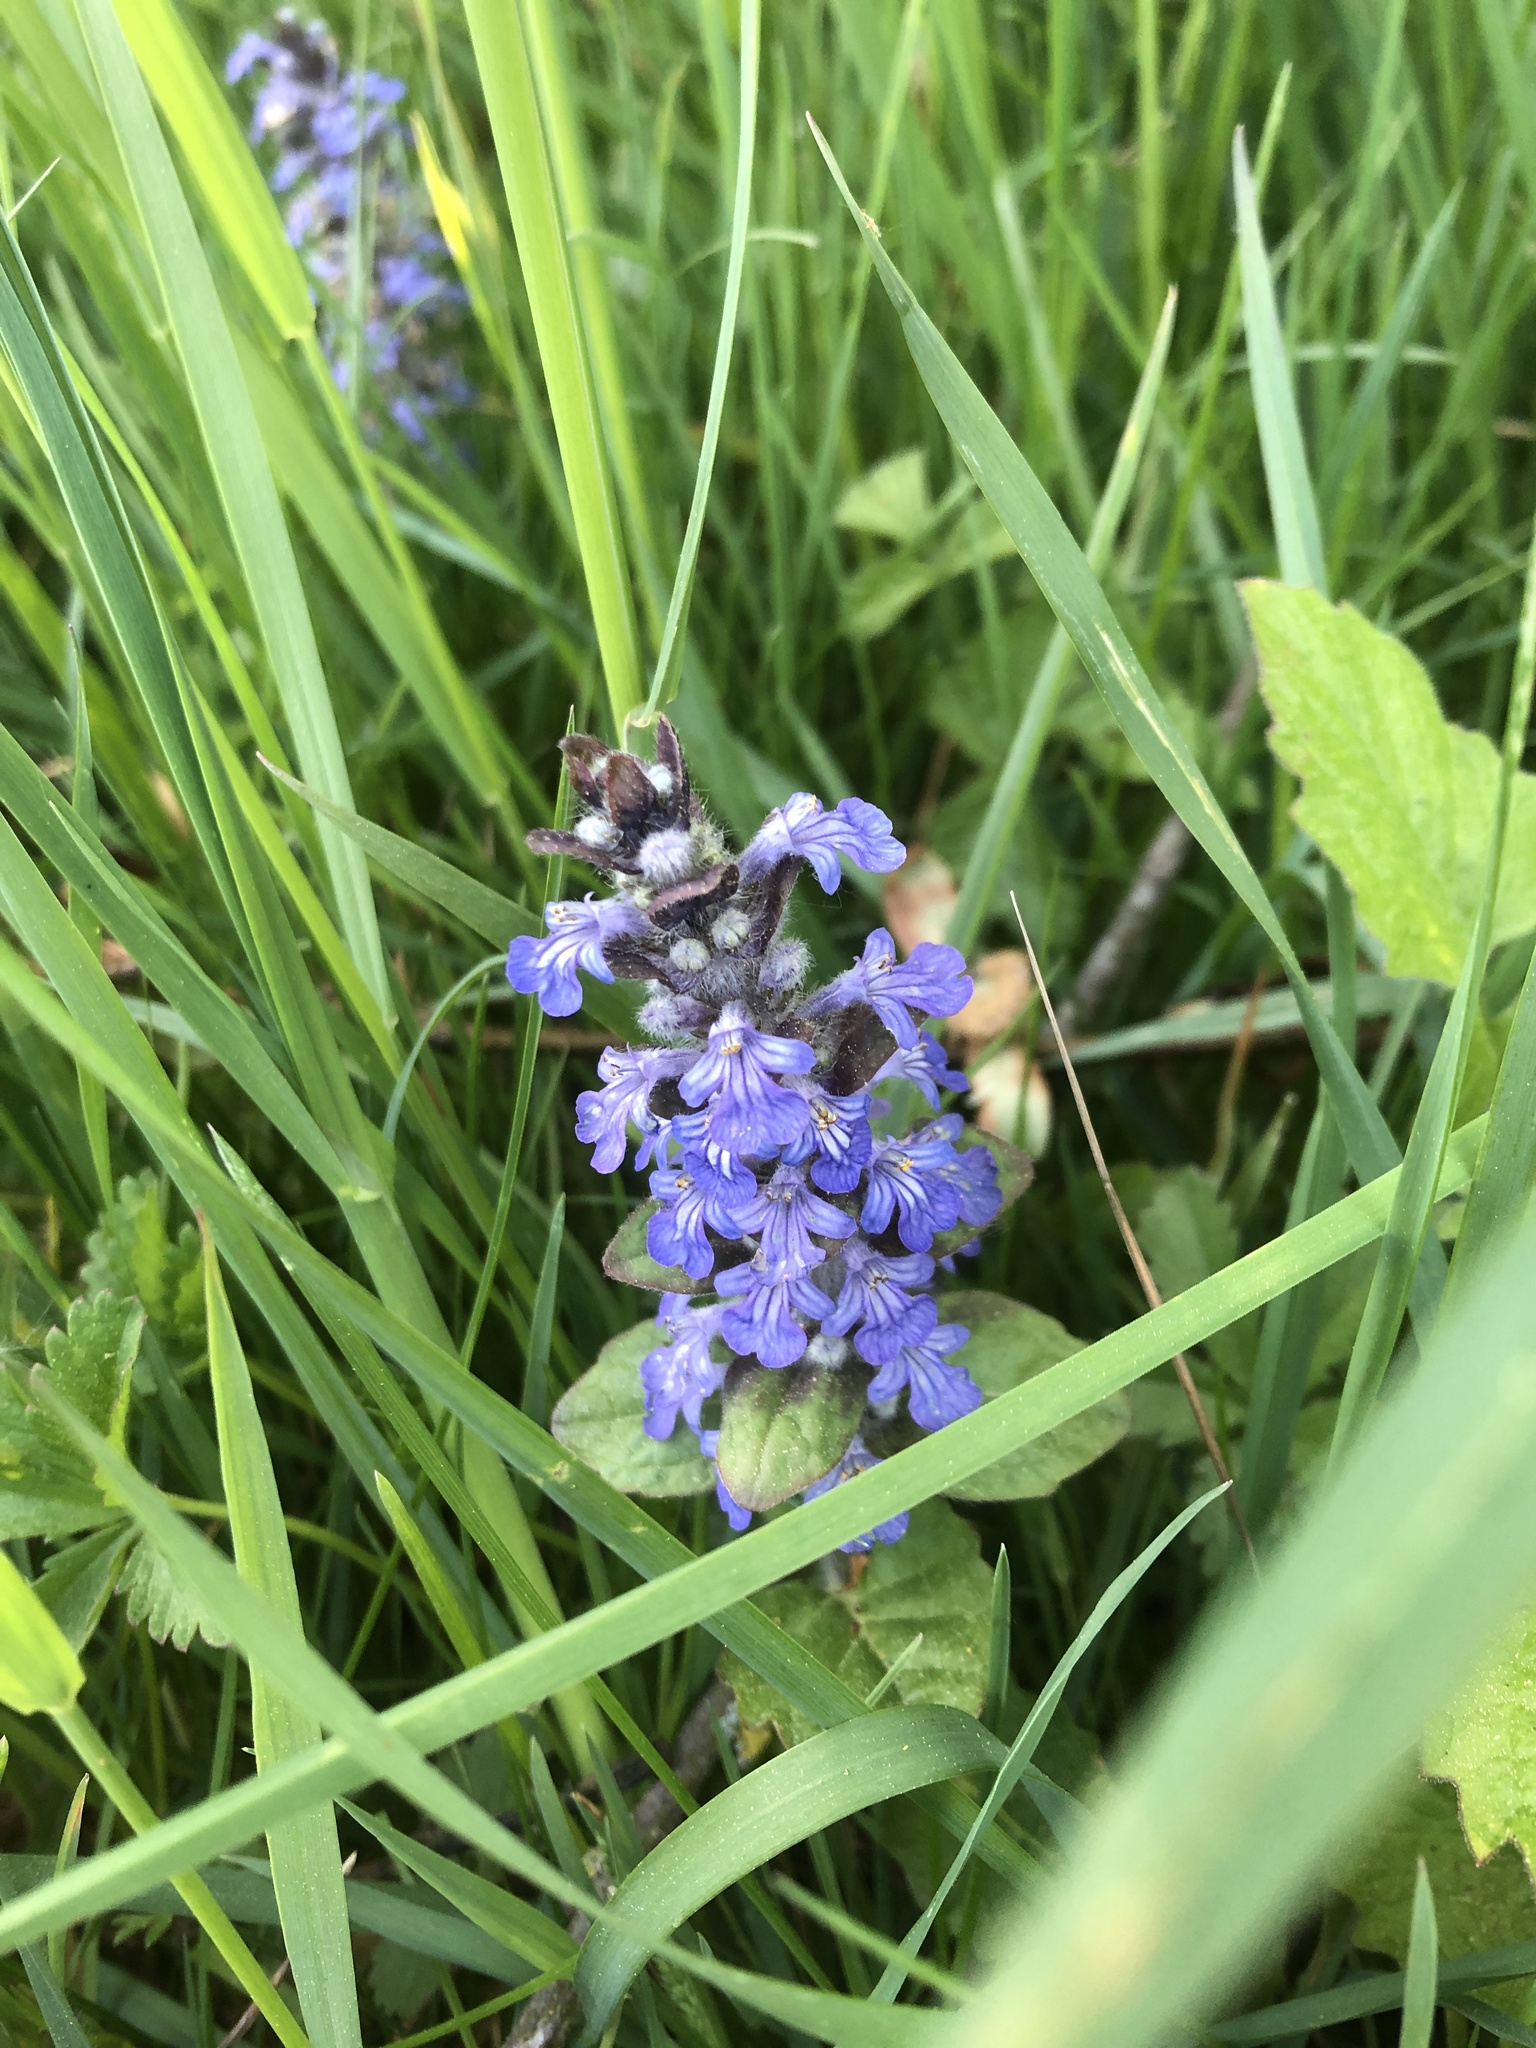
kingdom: Plantae
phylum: Tracheophyta
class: Magnoliopsida
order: Lamiales
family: Lamiaceae
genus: Ajuga
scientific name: Ajuga reptans
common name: Bugle
